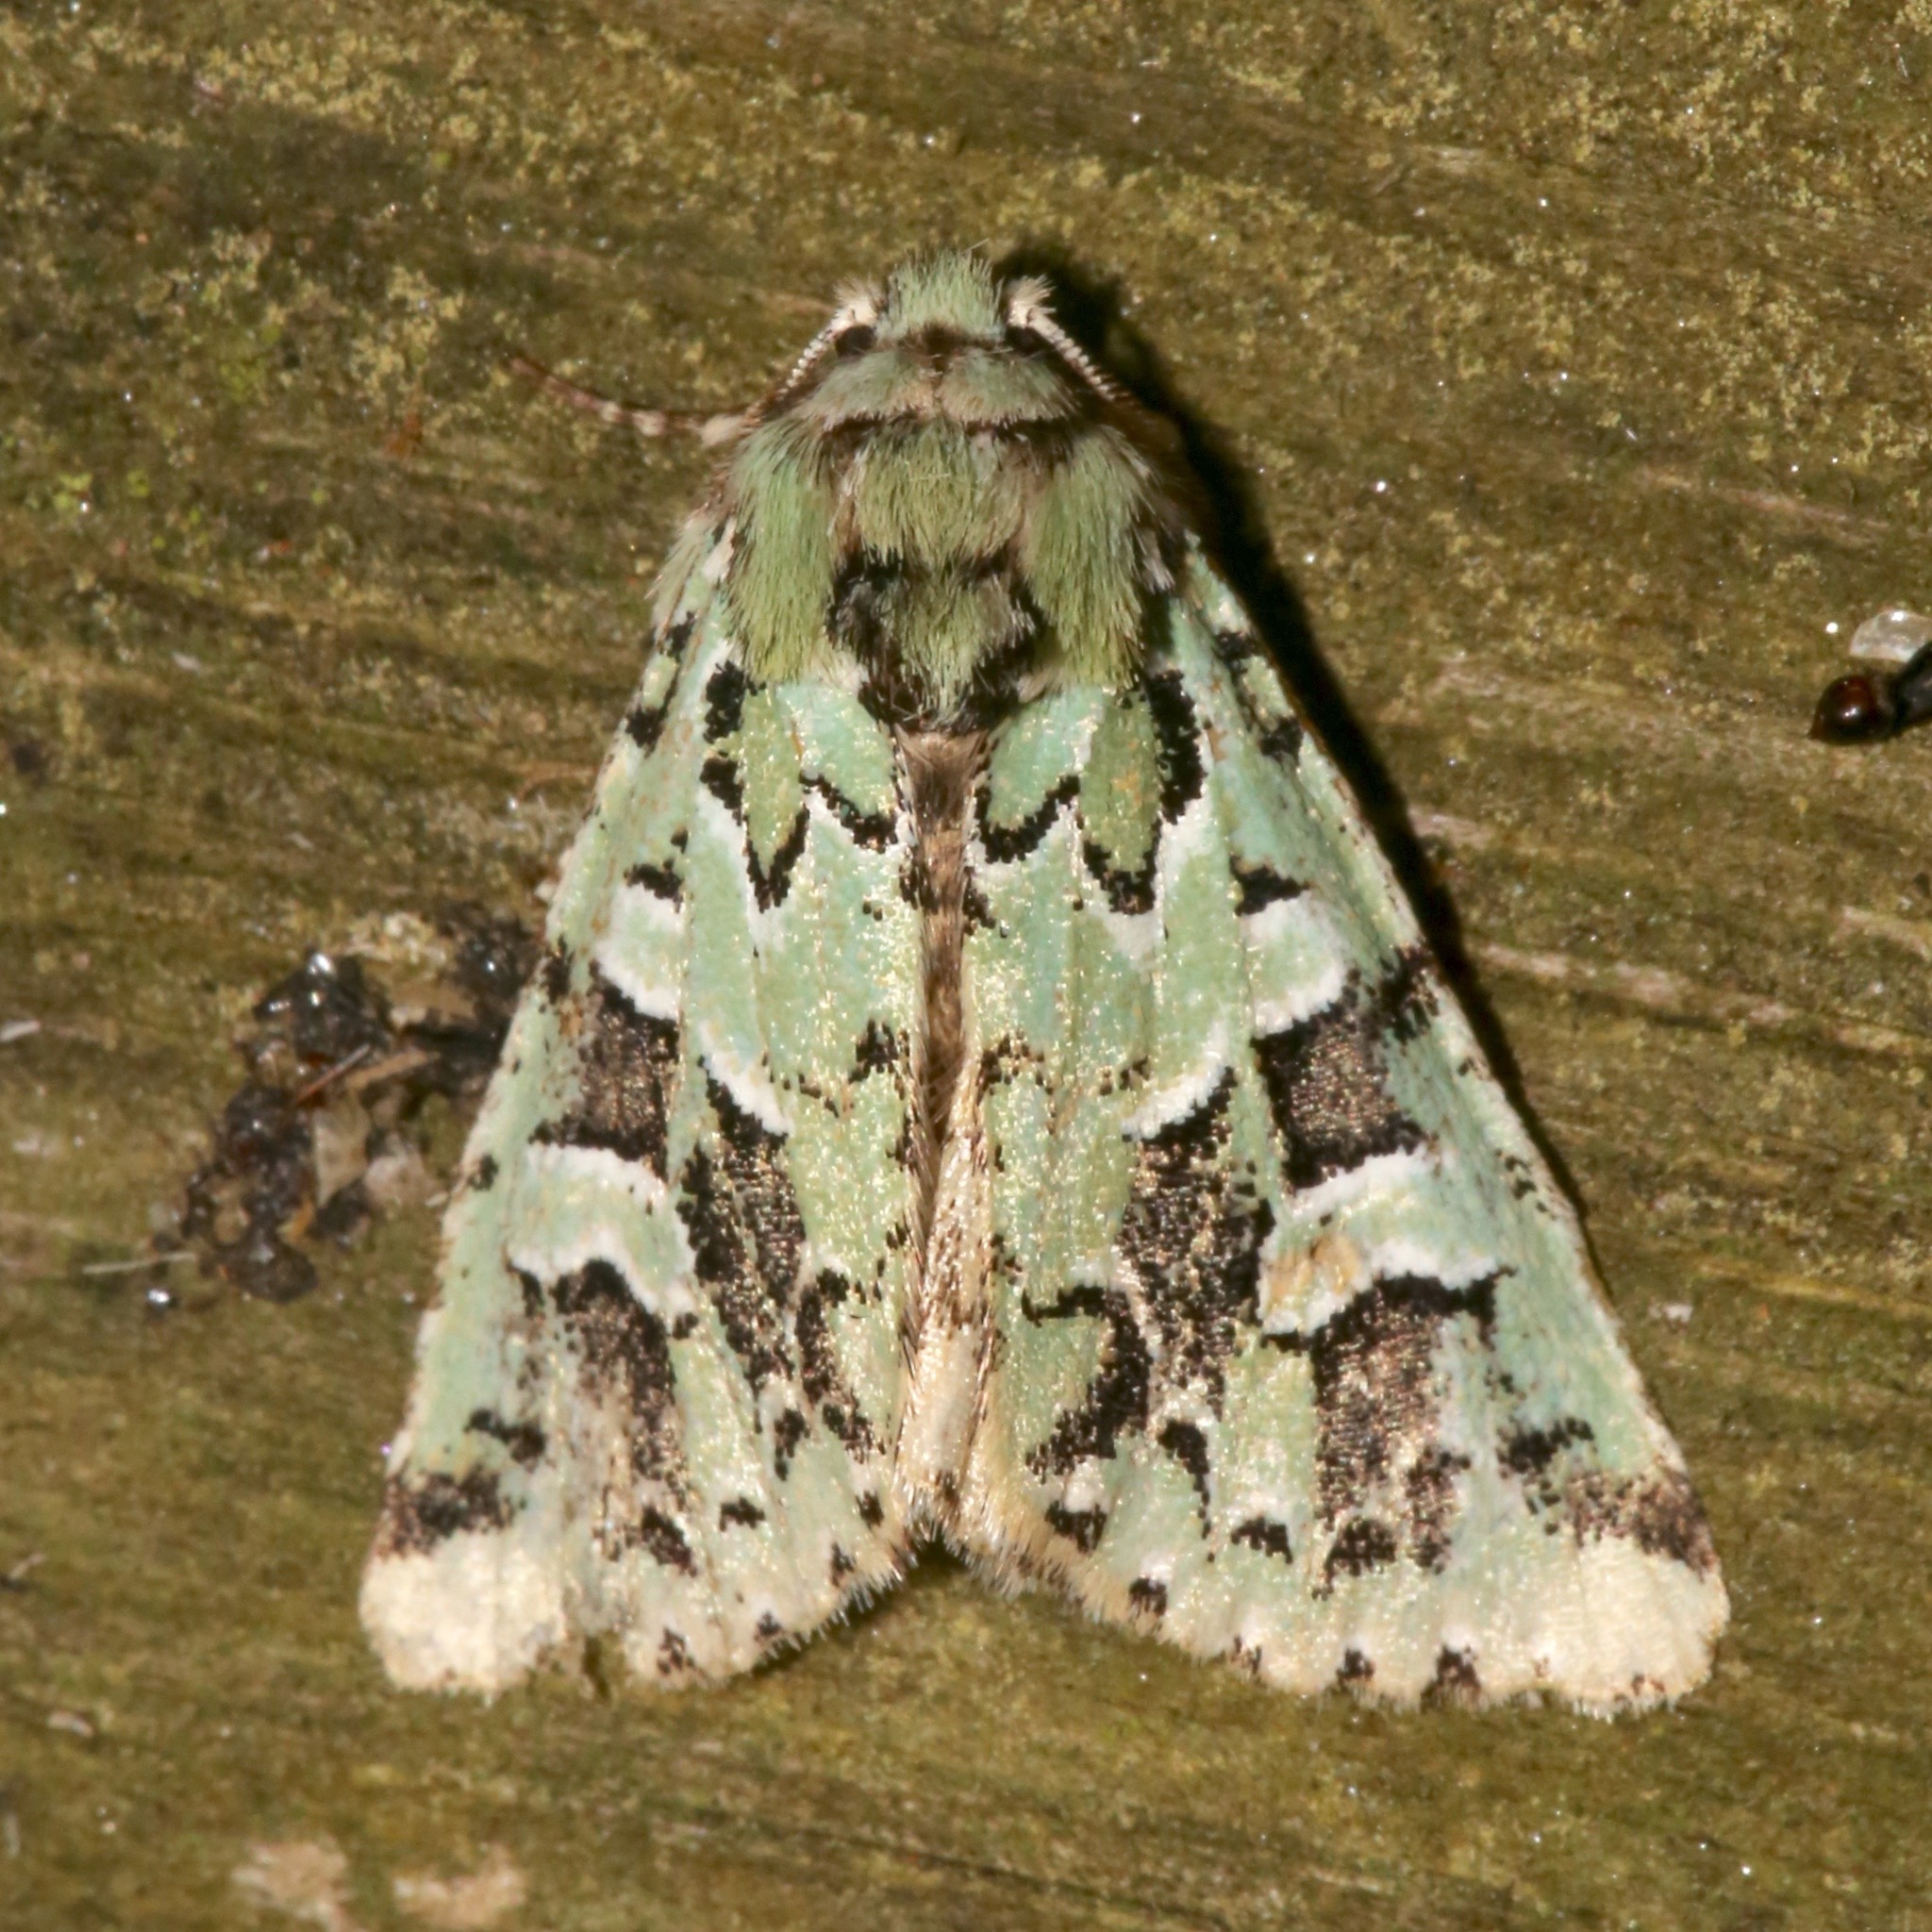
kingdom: Animalia
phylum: Arthropoda
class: Insecta
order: Lepidoptera
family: Noctuidae
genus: Feralia
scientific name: Feralia comstocki
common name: Comstock's sallow
